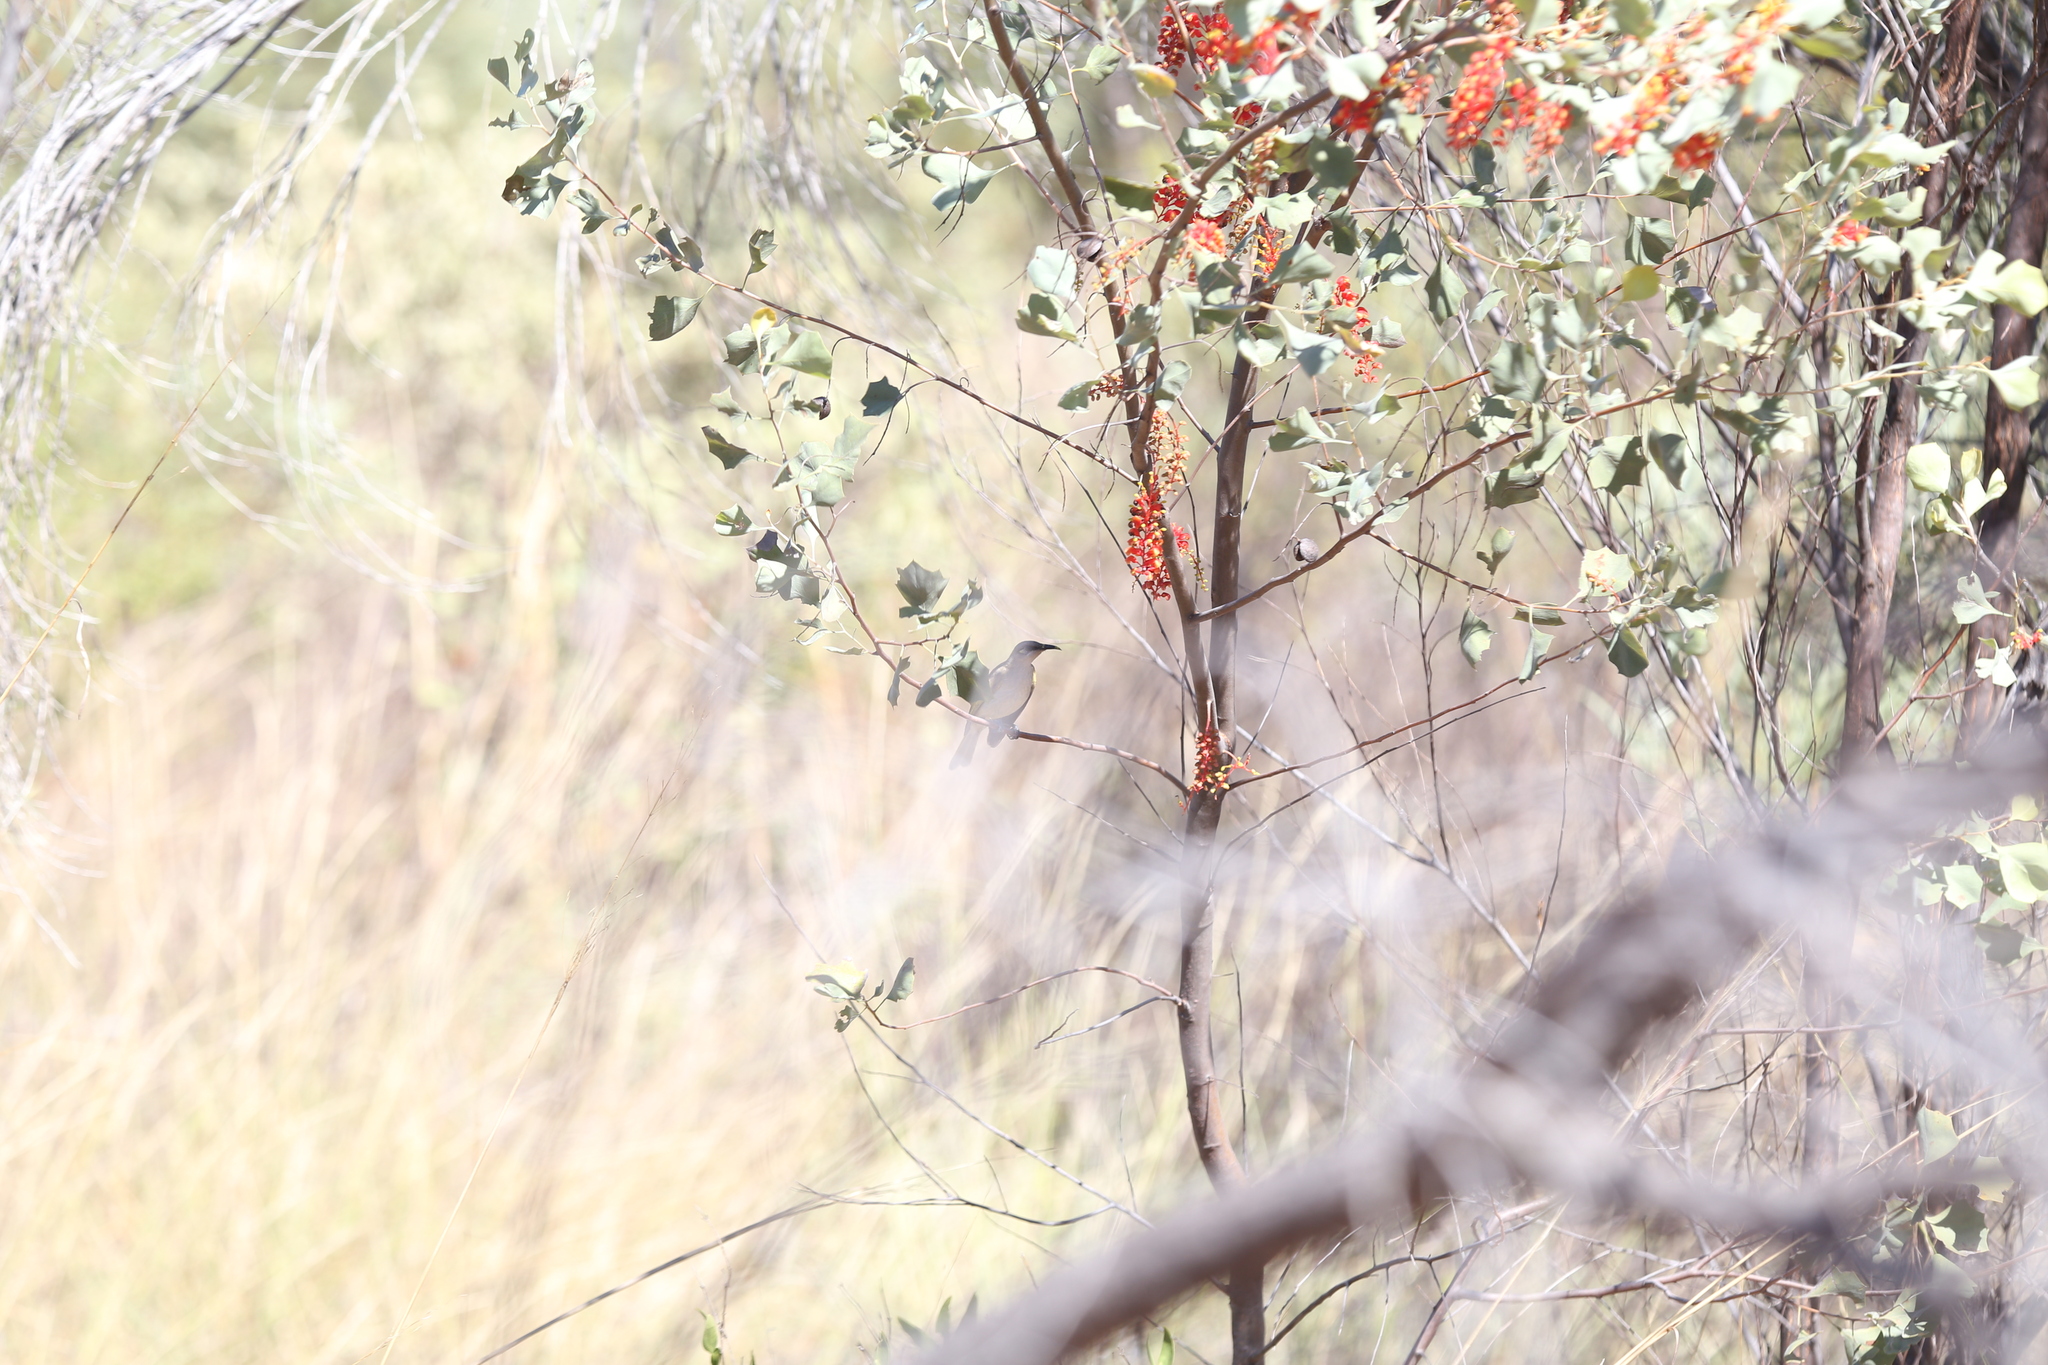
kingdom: Animalia
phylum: Chordata
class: Aves
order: Passeriformes
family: Meliphagidae
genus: Lichmera
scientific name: Lichmera indistincta
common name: Brown honeyeater
